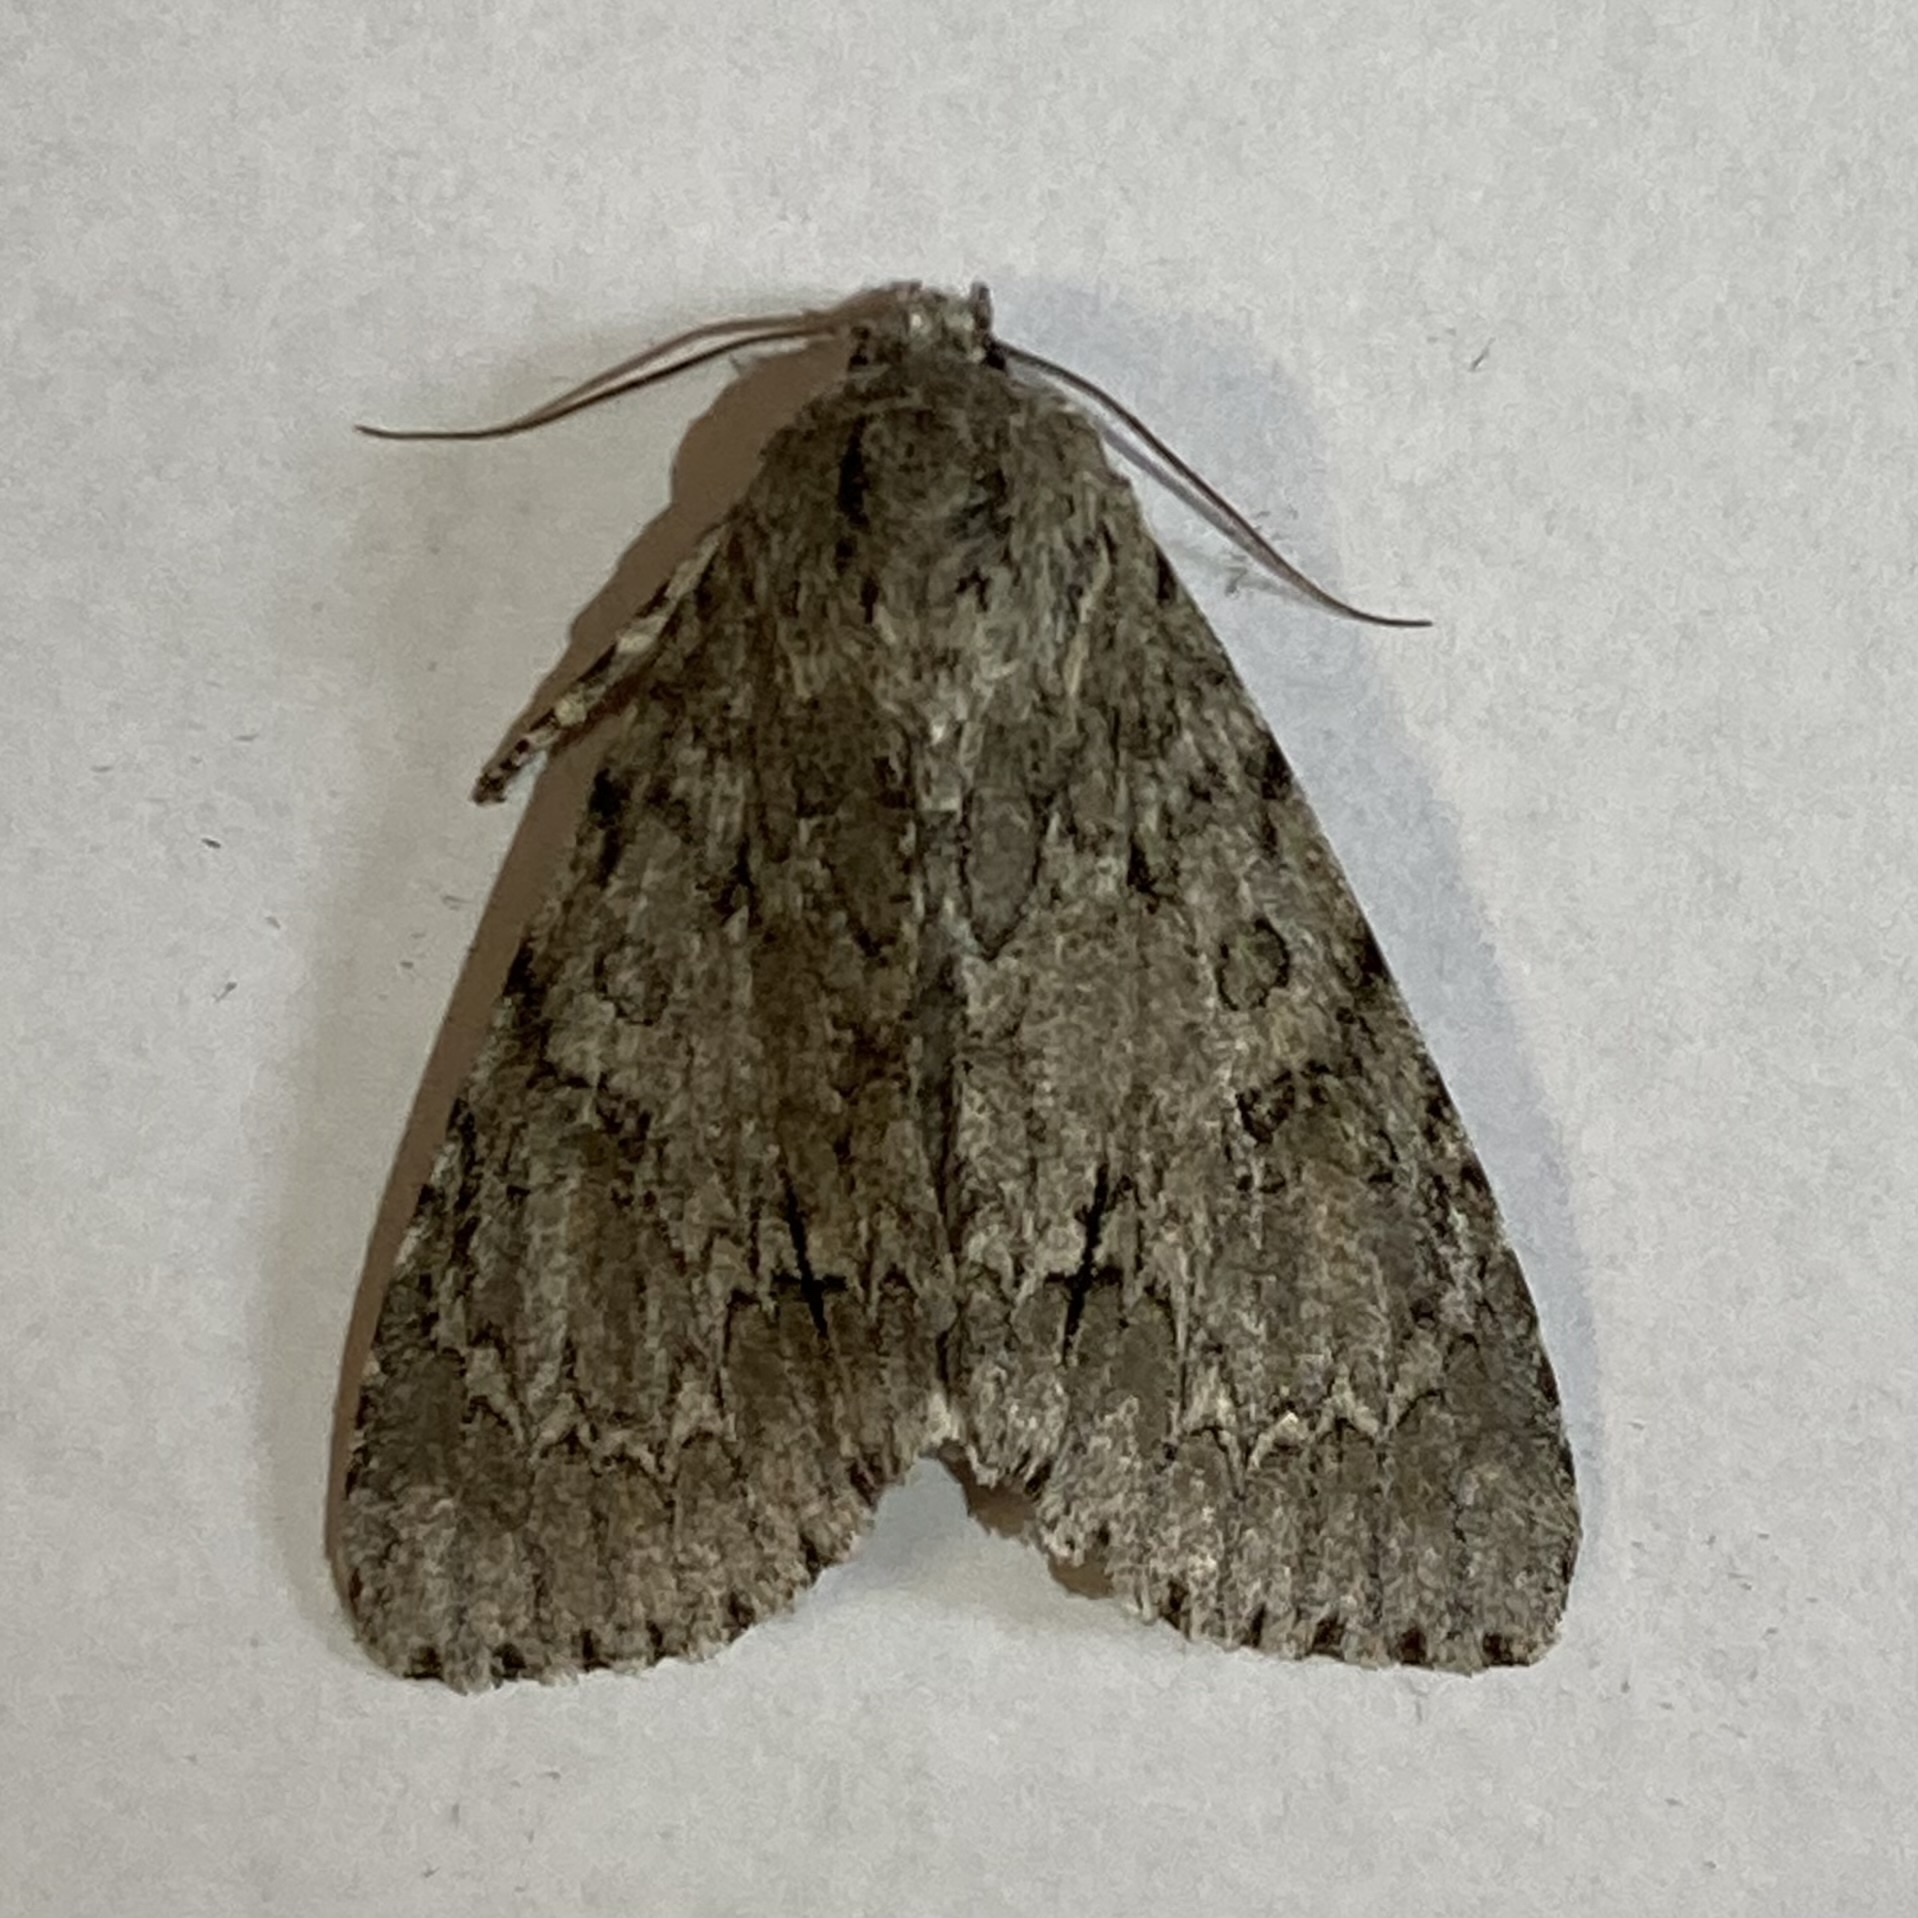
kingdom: Animalia
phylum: Arthropoda
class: Insecta
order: Lepidoptera
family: Noctuidae
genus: Acronicta
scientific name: Acronicta americana
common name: American dagger
